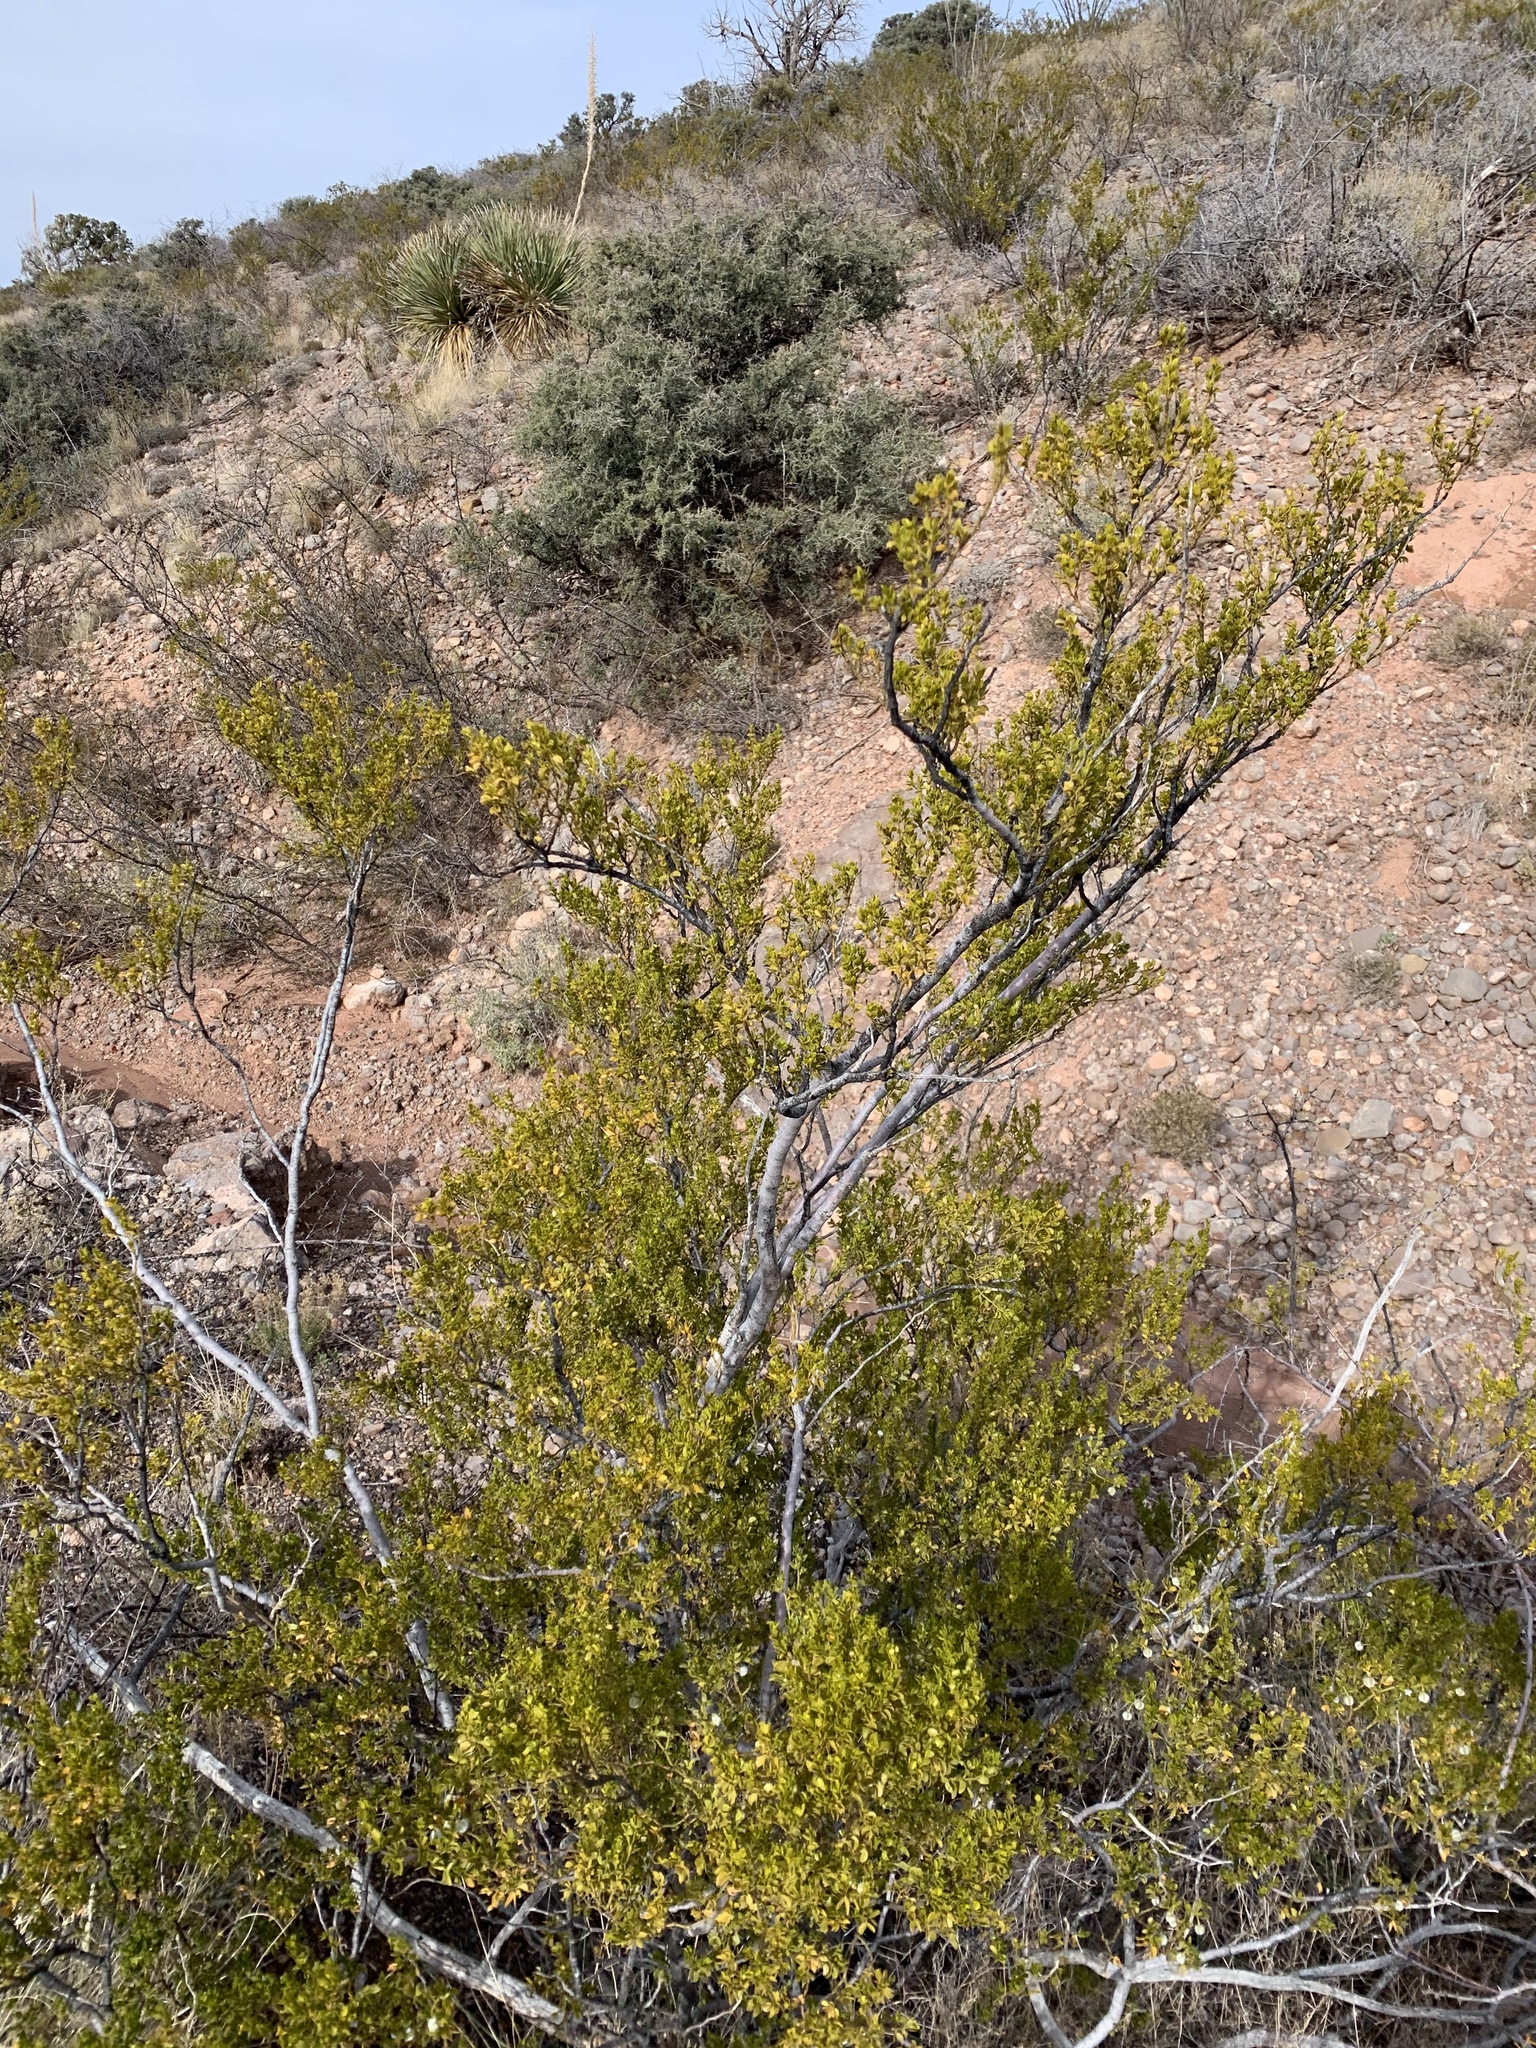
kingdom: Plantae
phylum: Tracheophyta
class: Magnoliopsida
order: Zygophyllales
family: Zygophyllaceae
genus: Larrea
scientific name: Larrea tridentata
